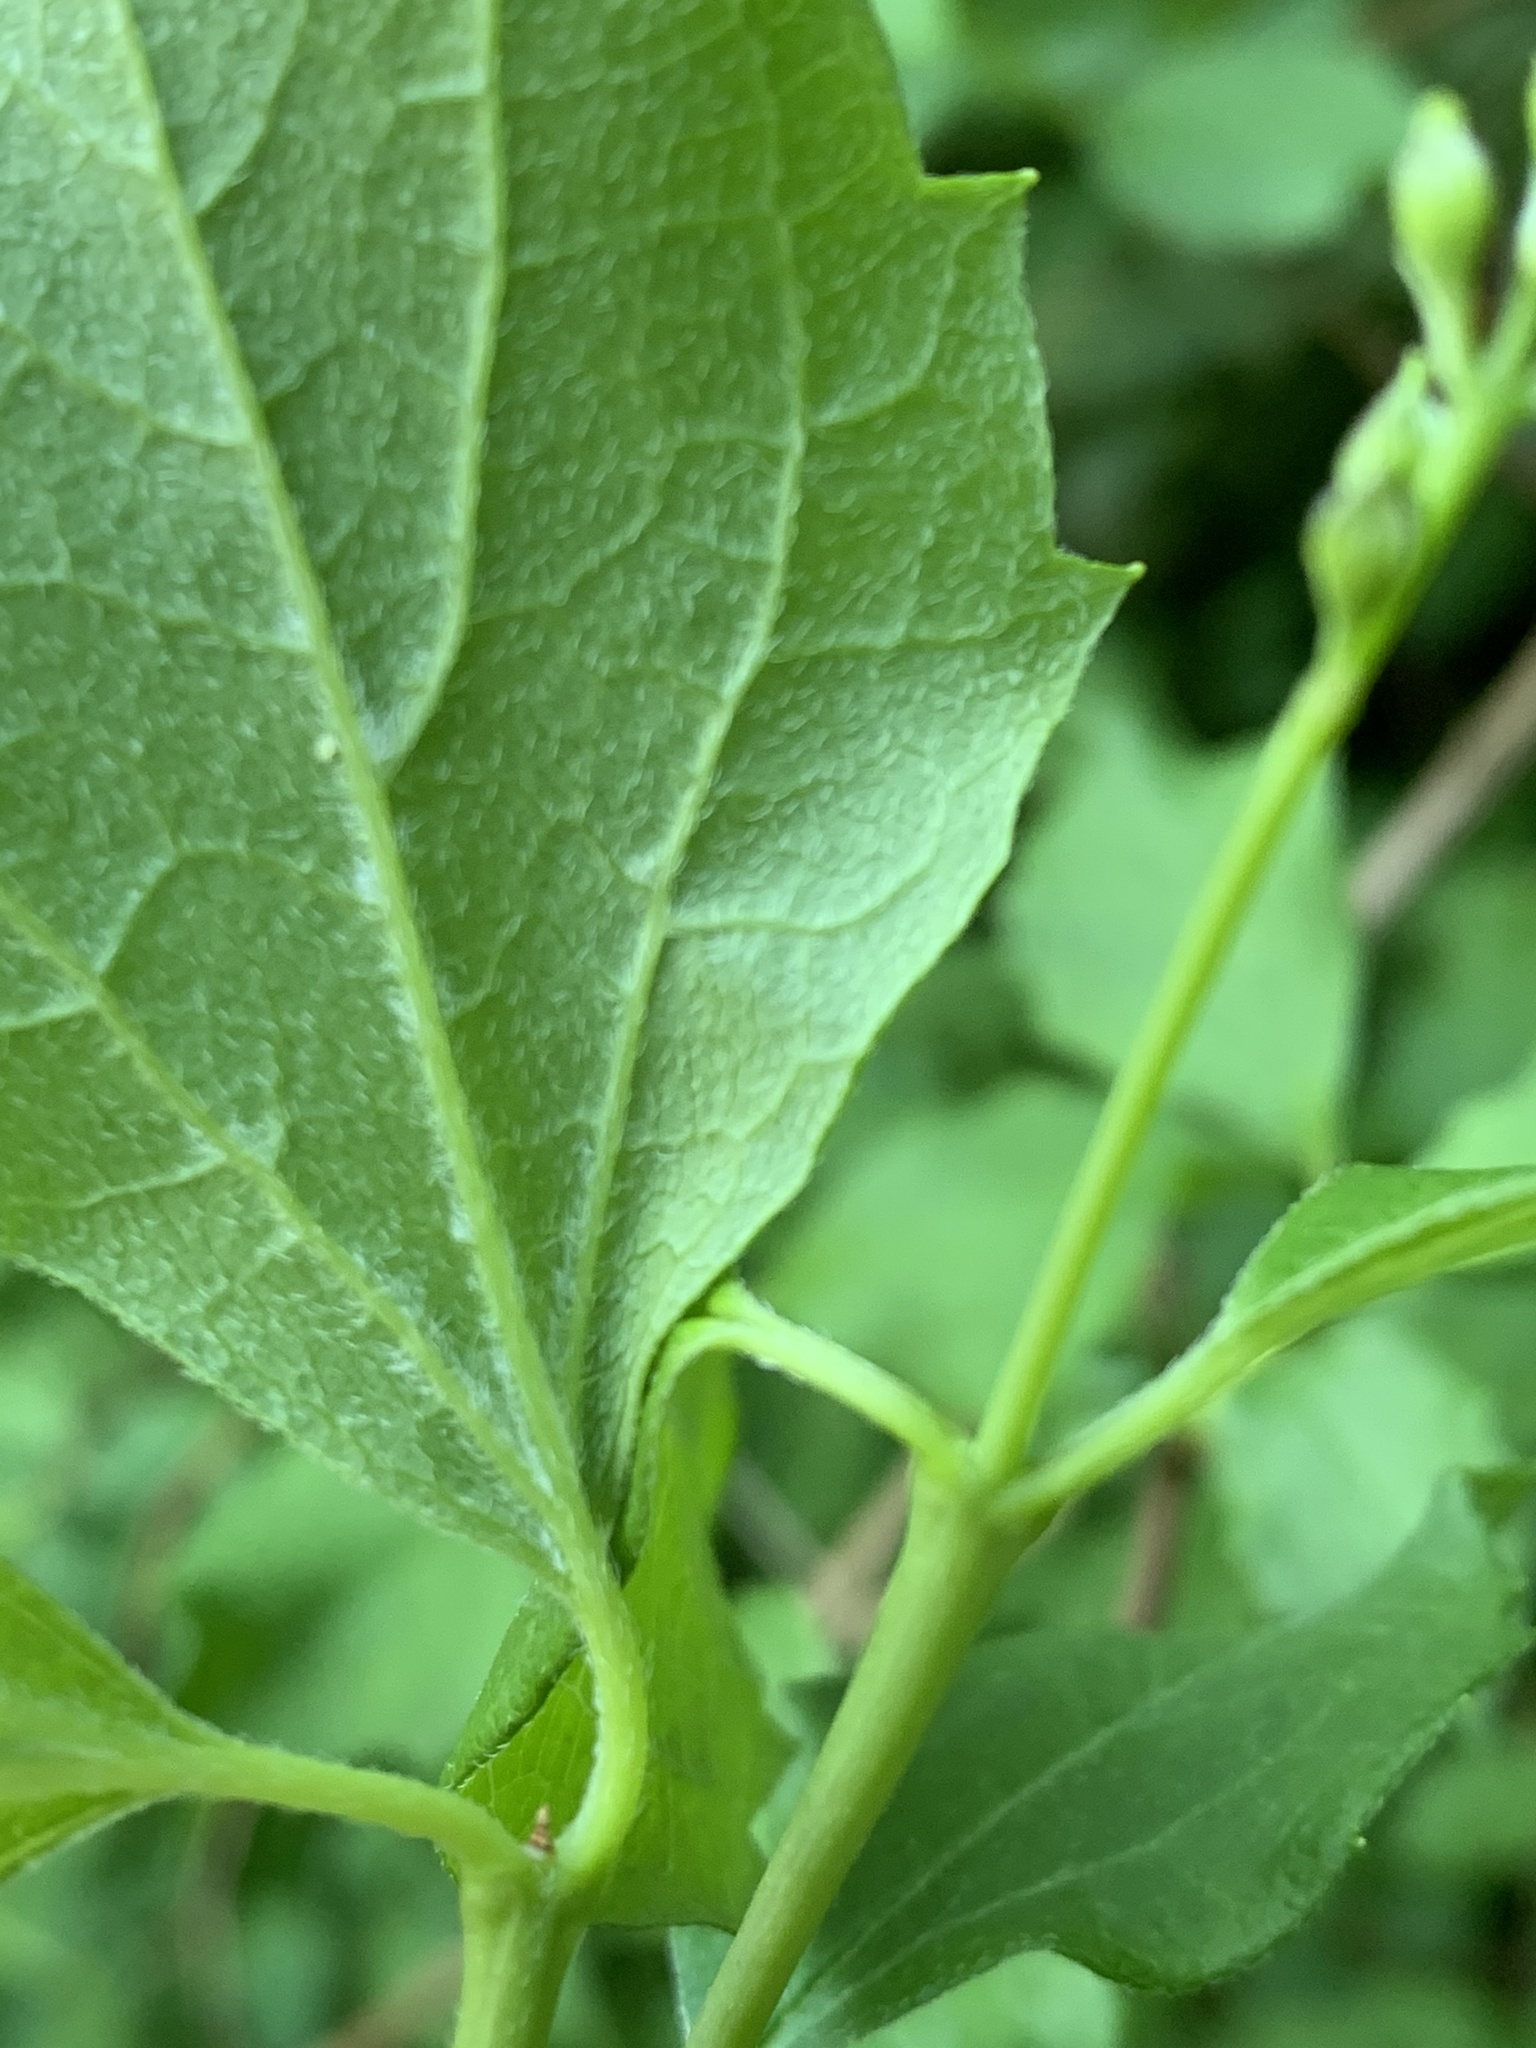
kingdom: Plantae
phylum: Tracheophyta
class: Magnoliopsida
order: Cornales
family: Hydrangeaceae
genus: Philadelphus
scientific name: Philadelphus lewisii
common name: Lewis's mock orange
